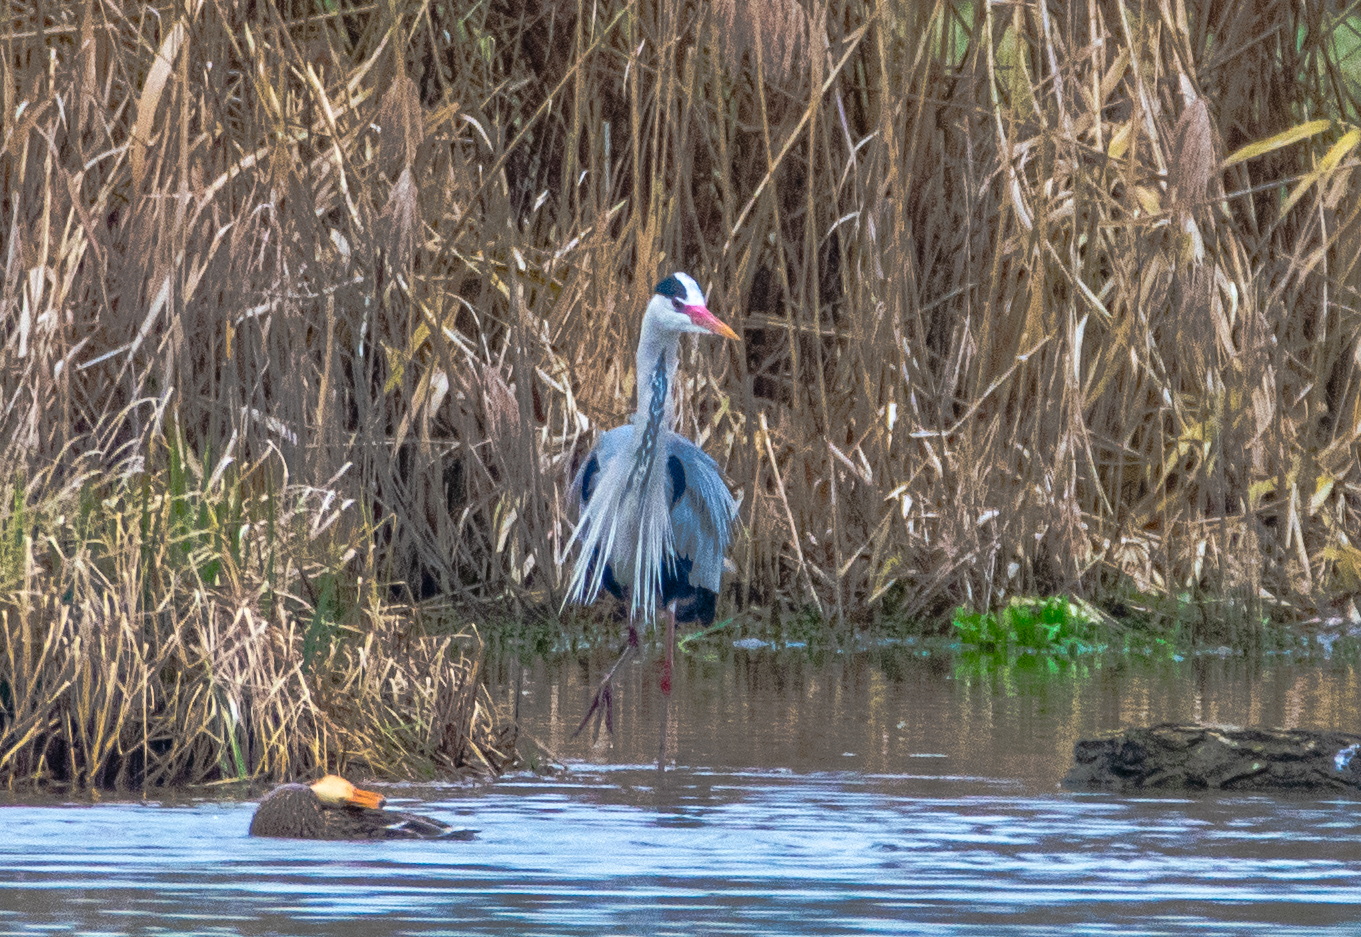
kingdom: Animalia
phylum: Chordata
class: Aves
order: Pelecaniformes
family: Ardeidae
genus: Ardea
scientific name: Ardea cinerea
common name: Grey heron
